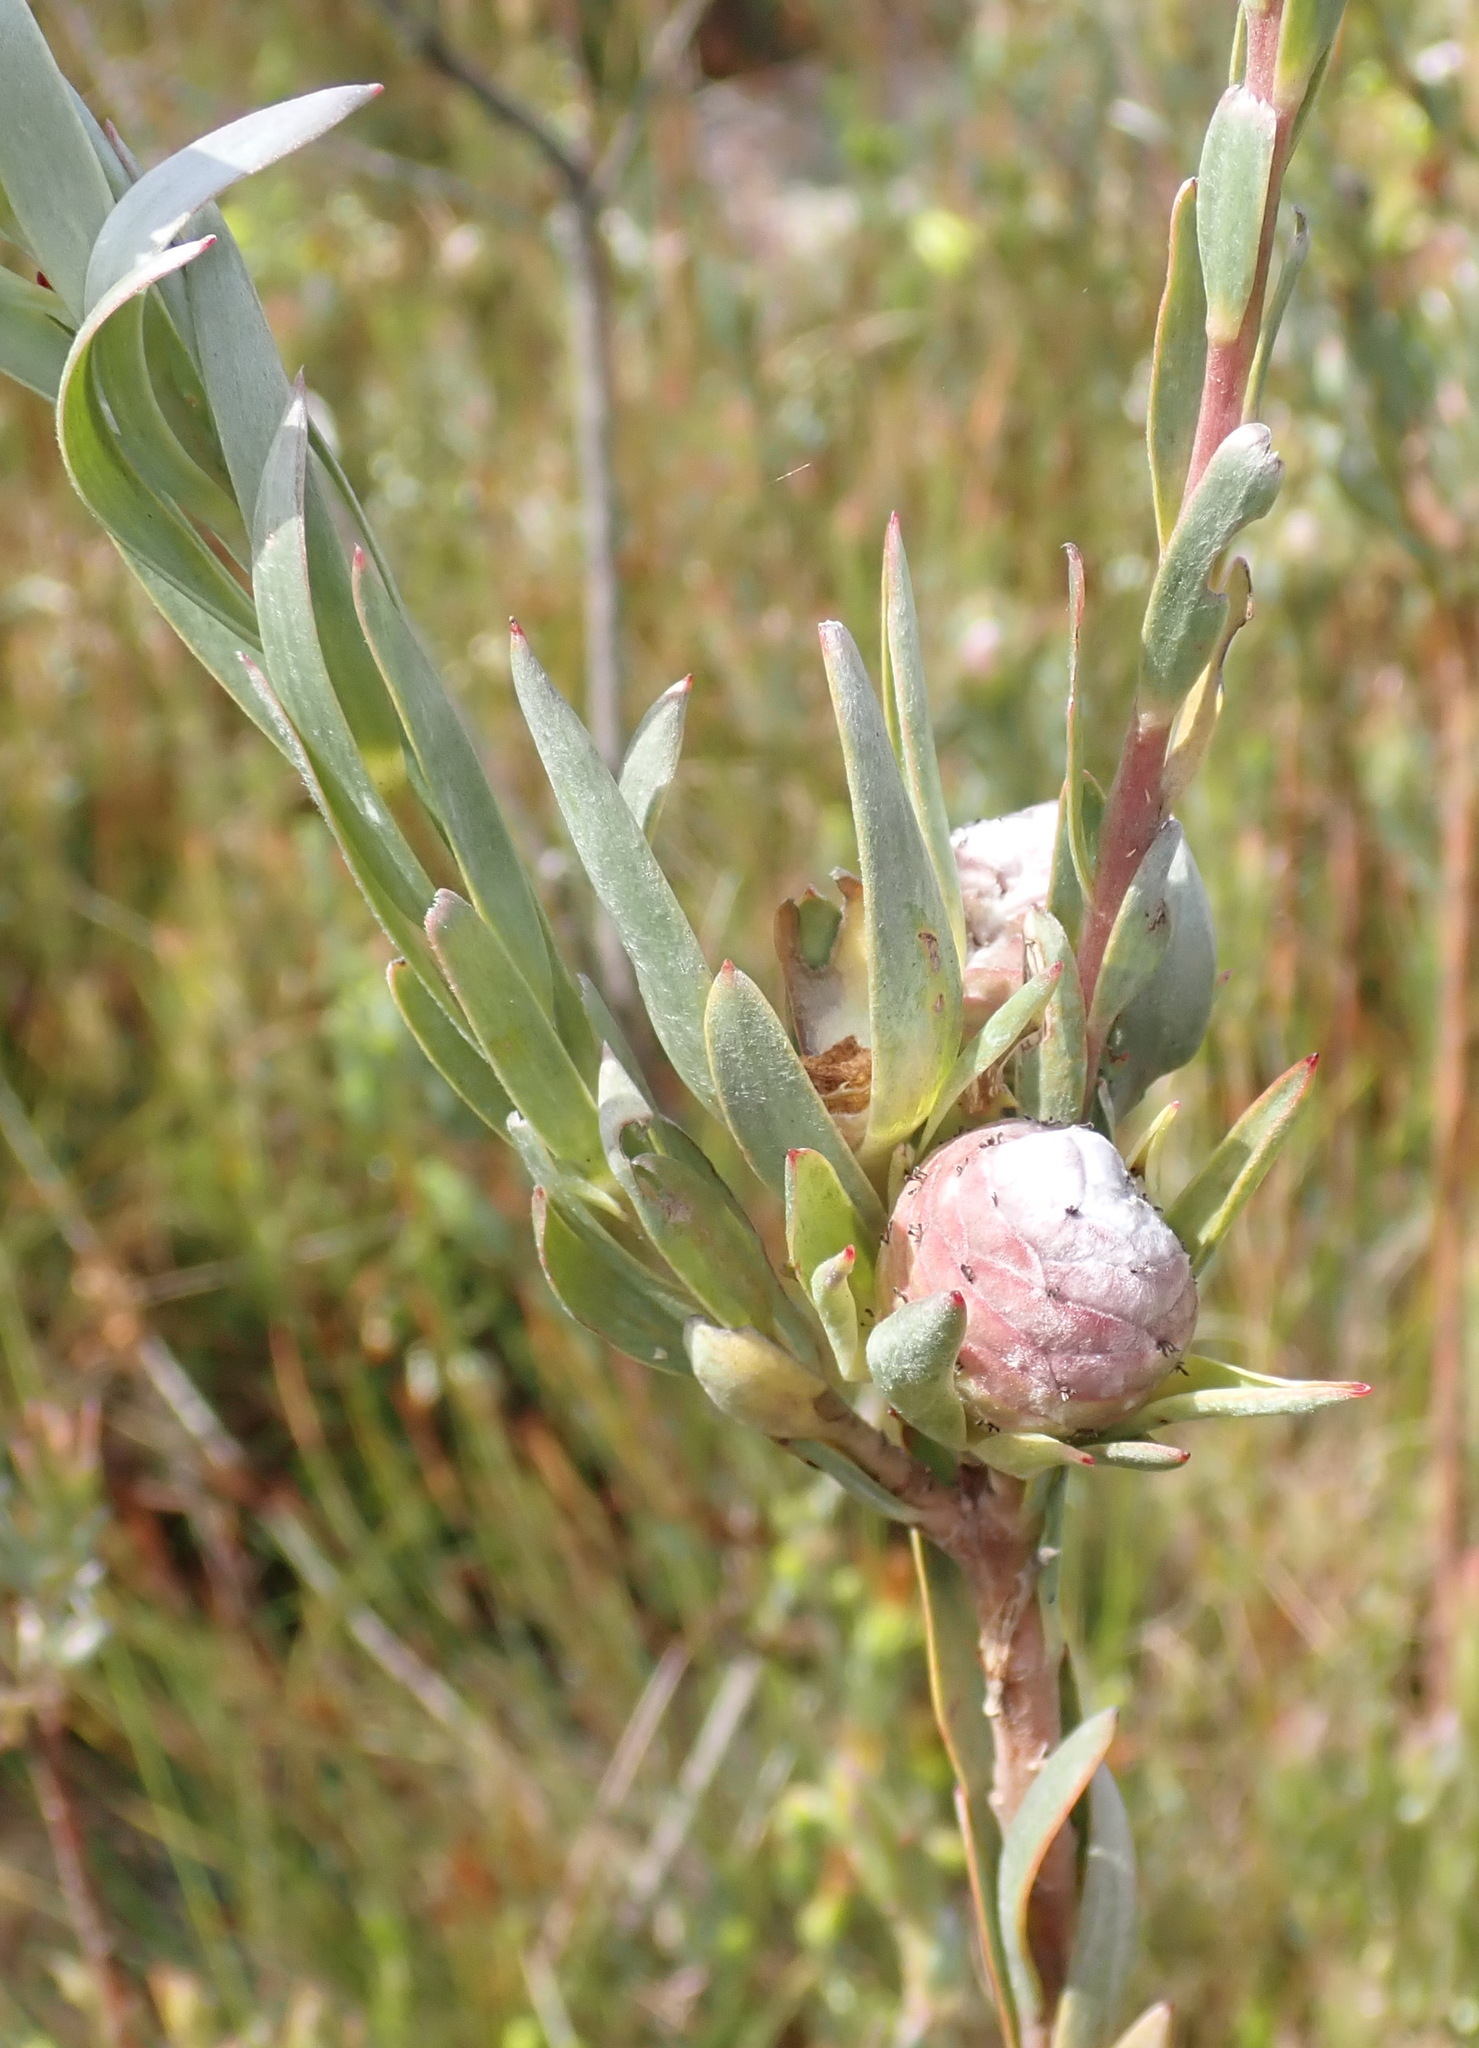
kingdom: Plantae
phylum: Tracheophyta
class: Magnoliopsida
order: Proteales
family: Proteaceae
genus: Leucadendron
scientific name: Leucadendron uliginosum
